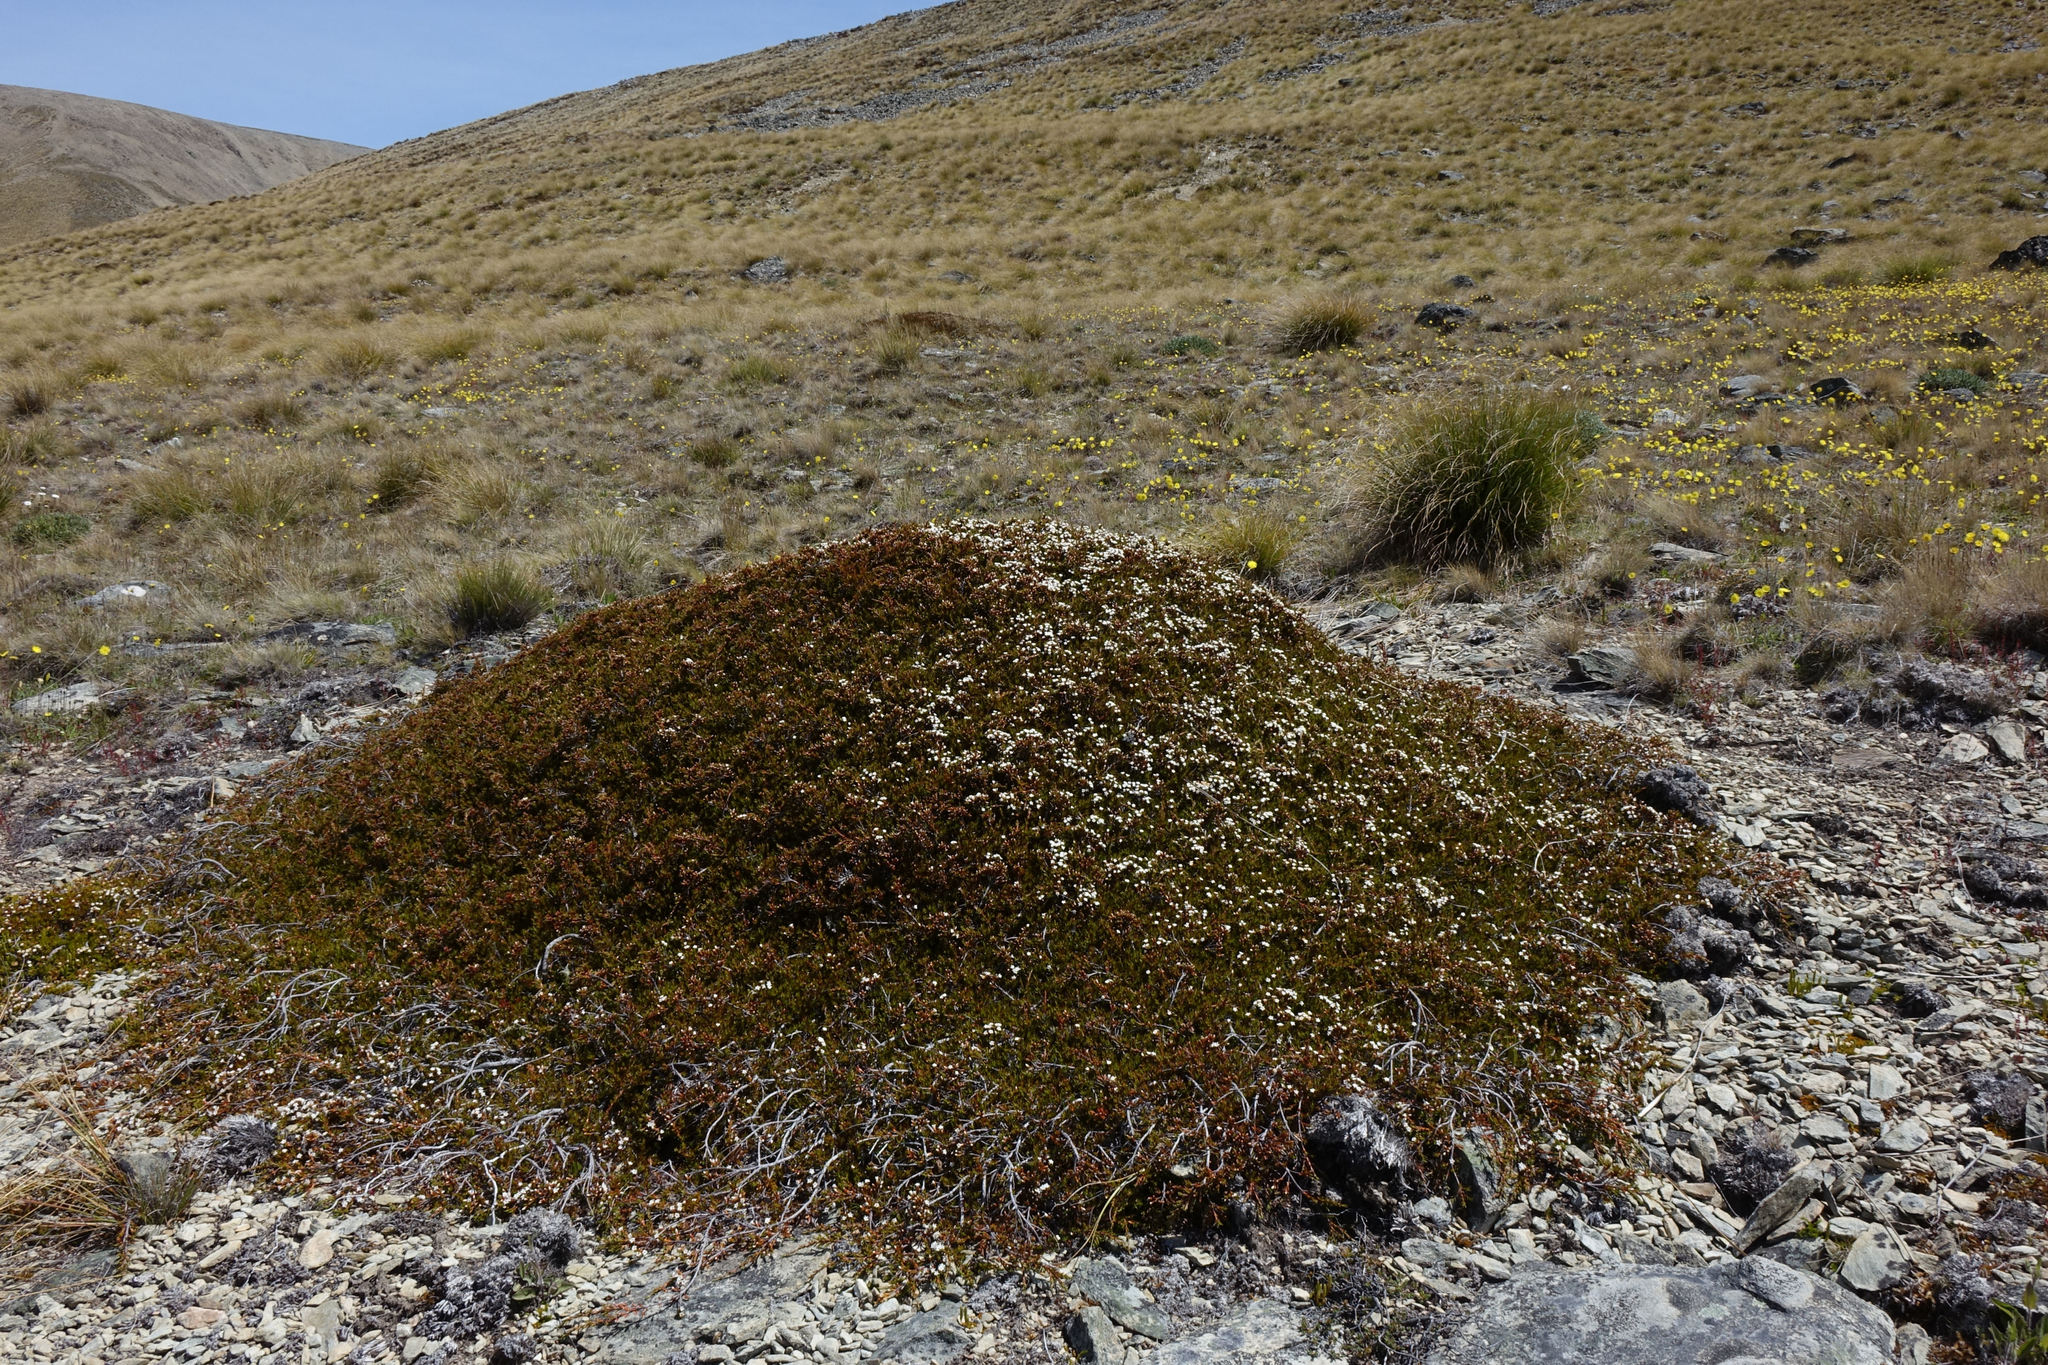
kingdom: Plantae
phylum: Tracheophyta
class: Magnoliopsida
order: Ericales
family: Ericaceae
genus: Dracophyllum
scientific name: Dracophyllum pronum
